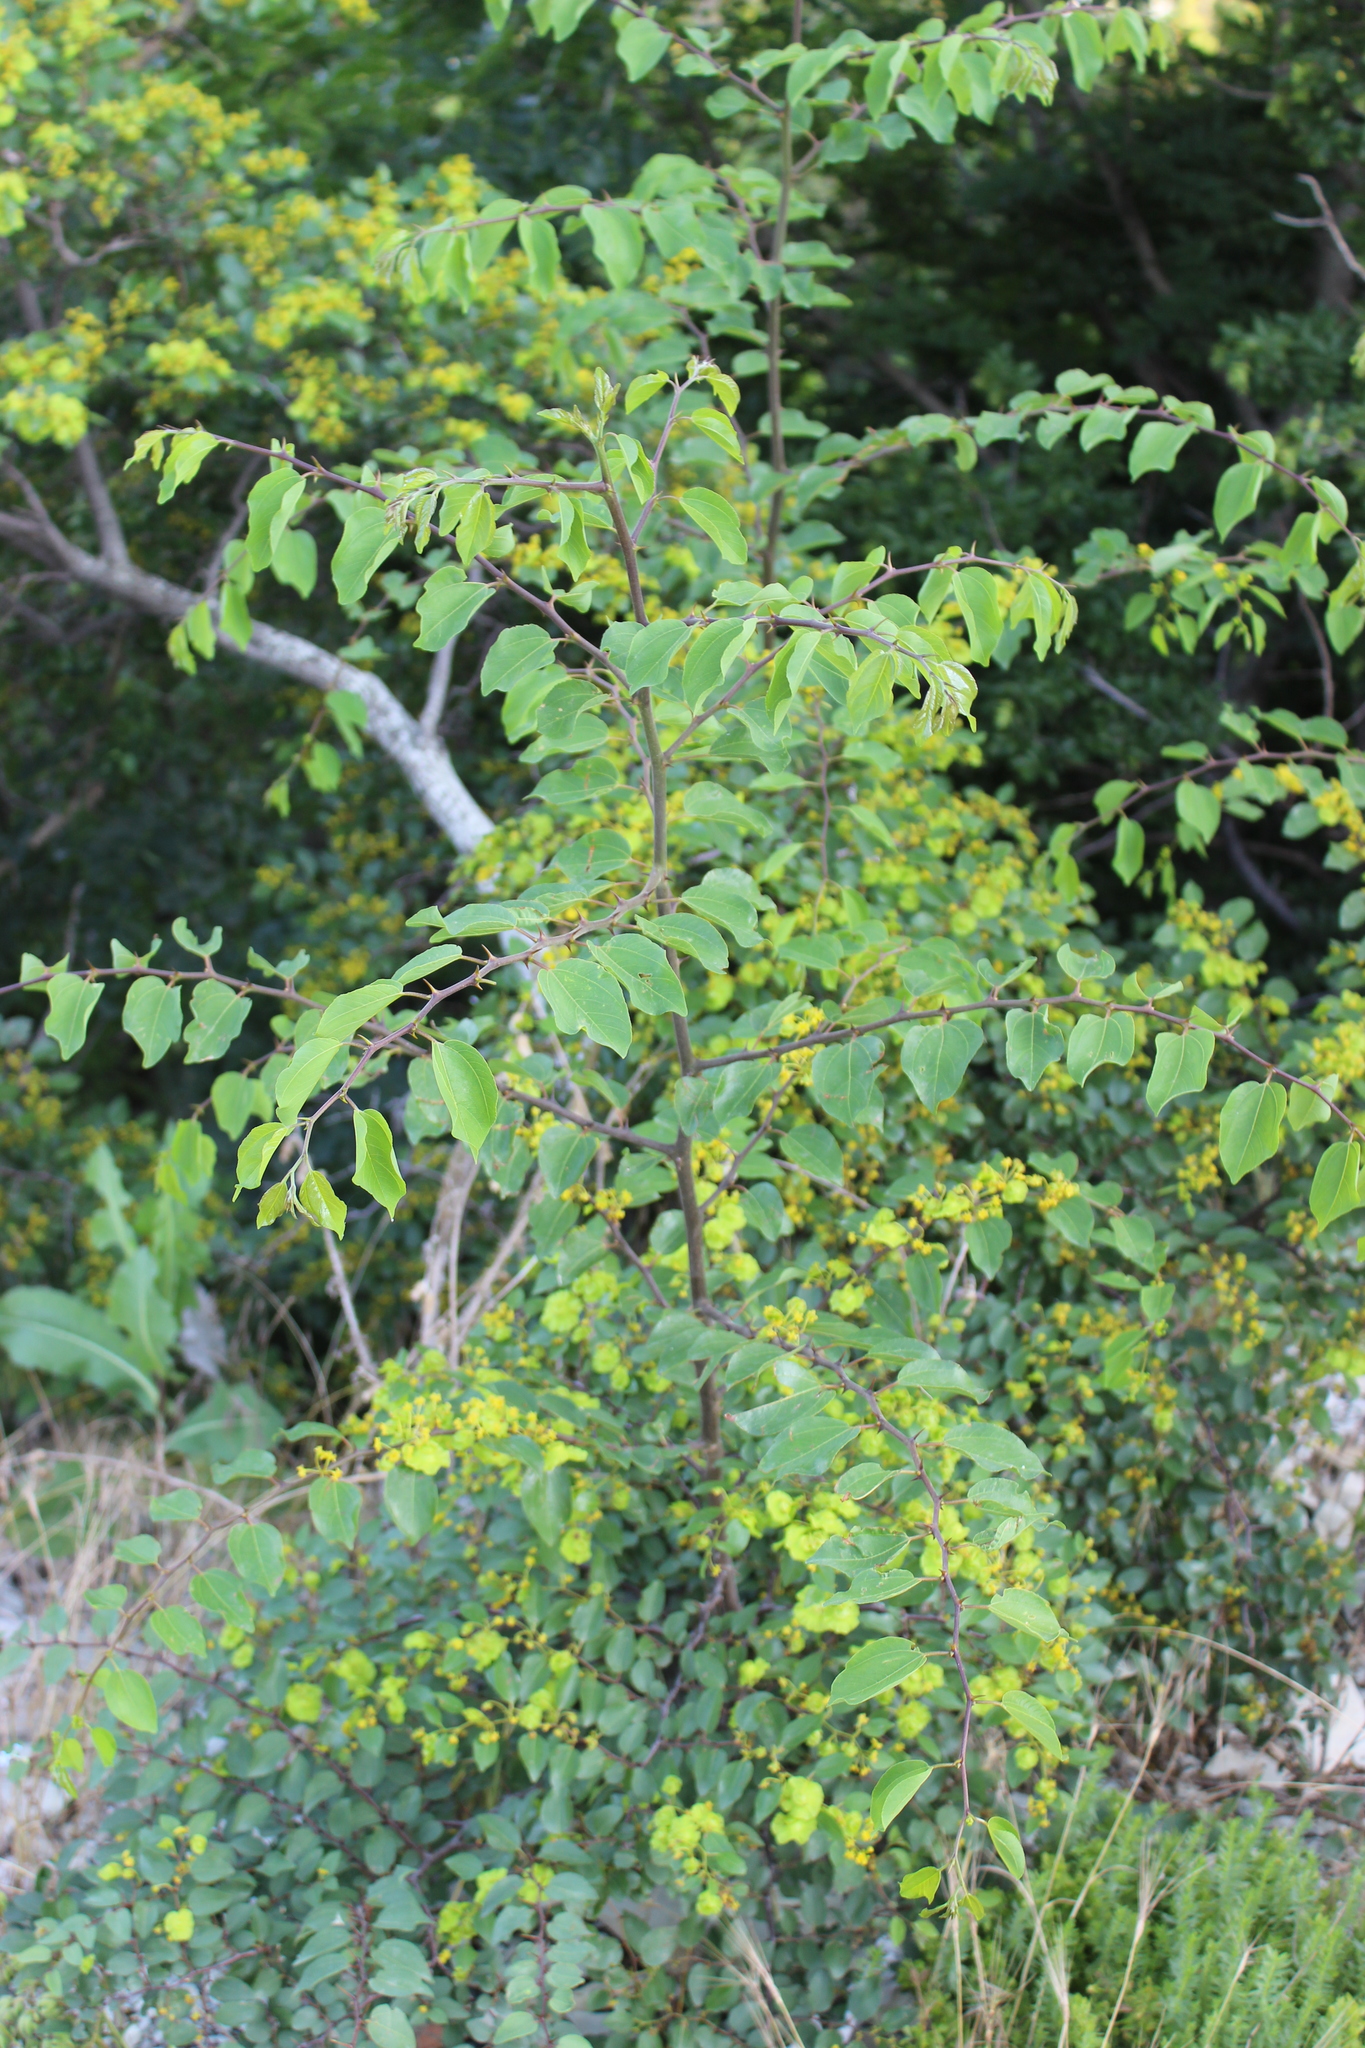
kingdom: Plantae
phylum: Tracheophyta
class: Magnoliopsida
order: Rosales
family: Rhamnaceae
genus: Paliurus
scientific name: Paliurus spina-christi
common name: Jeruselem thorn
